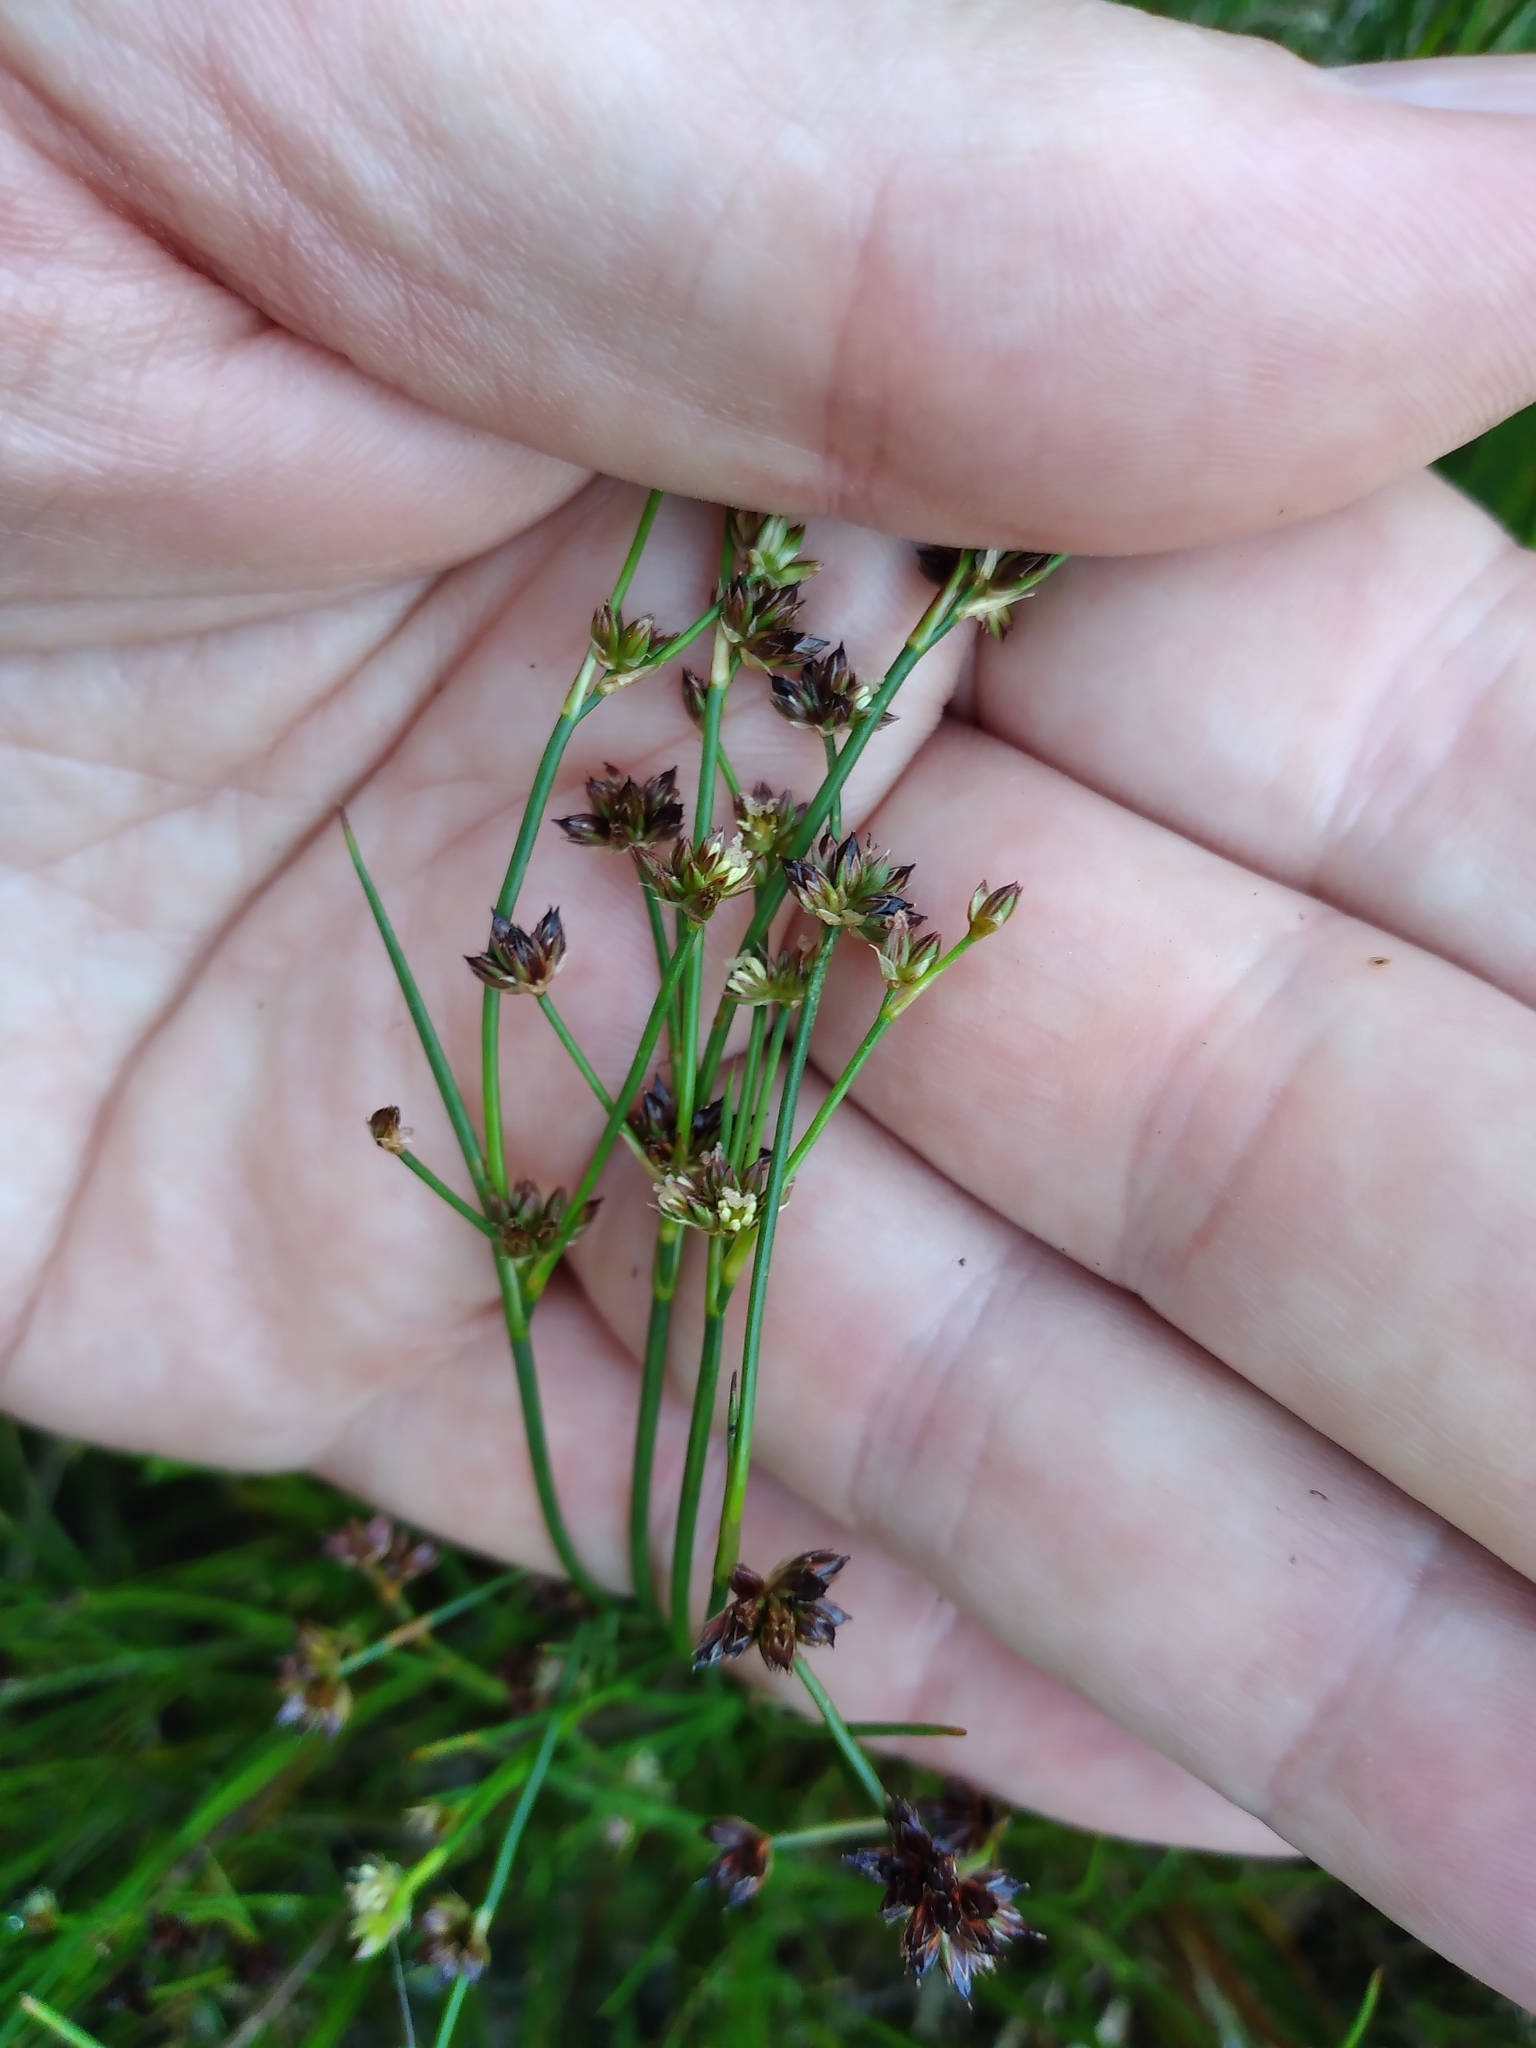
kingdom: Plantae
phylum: Tracheophyta
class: Liliopsida
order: Poales
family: Juncaceae
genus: Juncus
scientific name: Juncus articulatus
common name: Jointed rush
